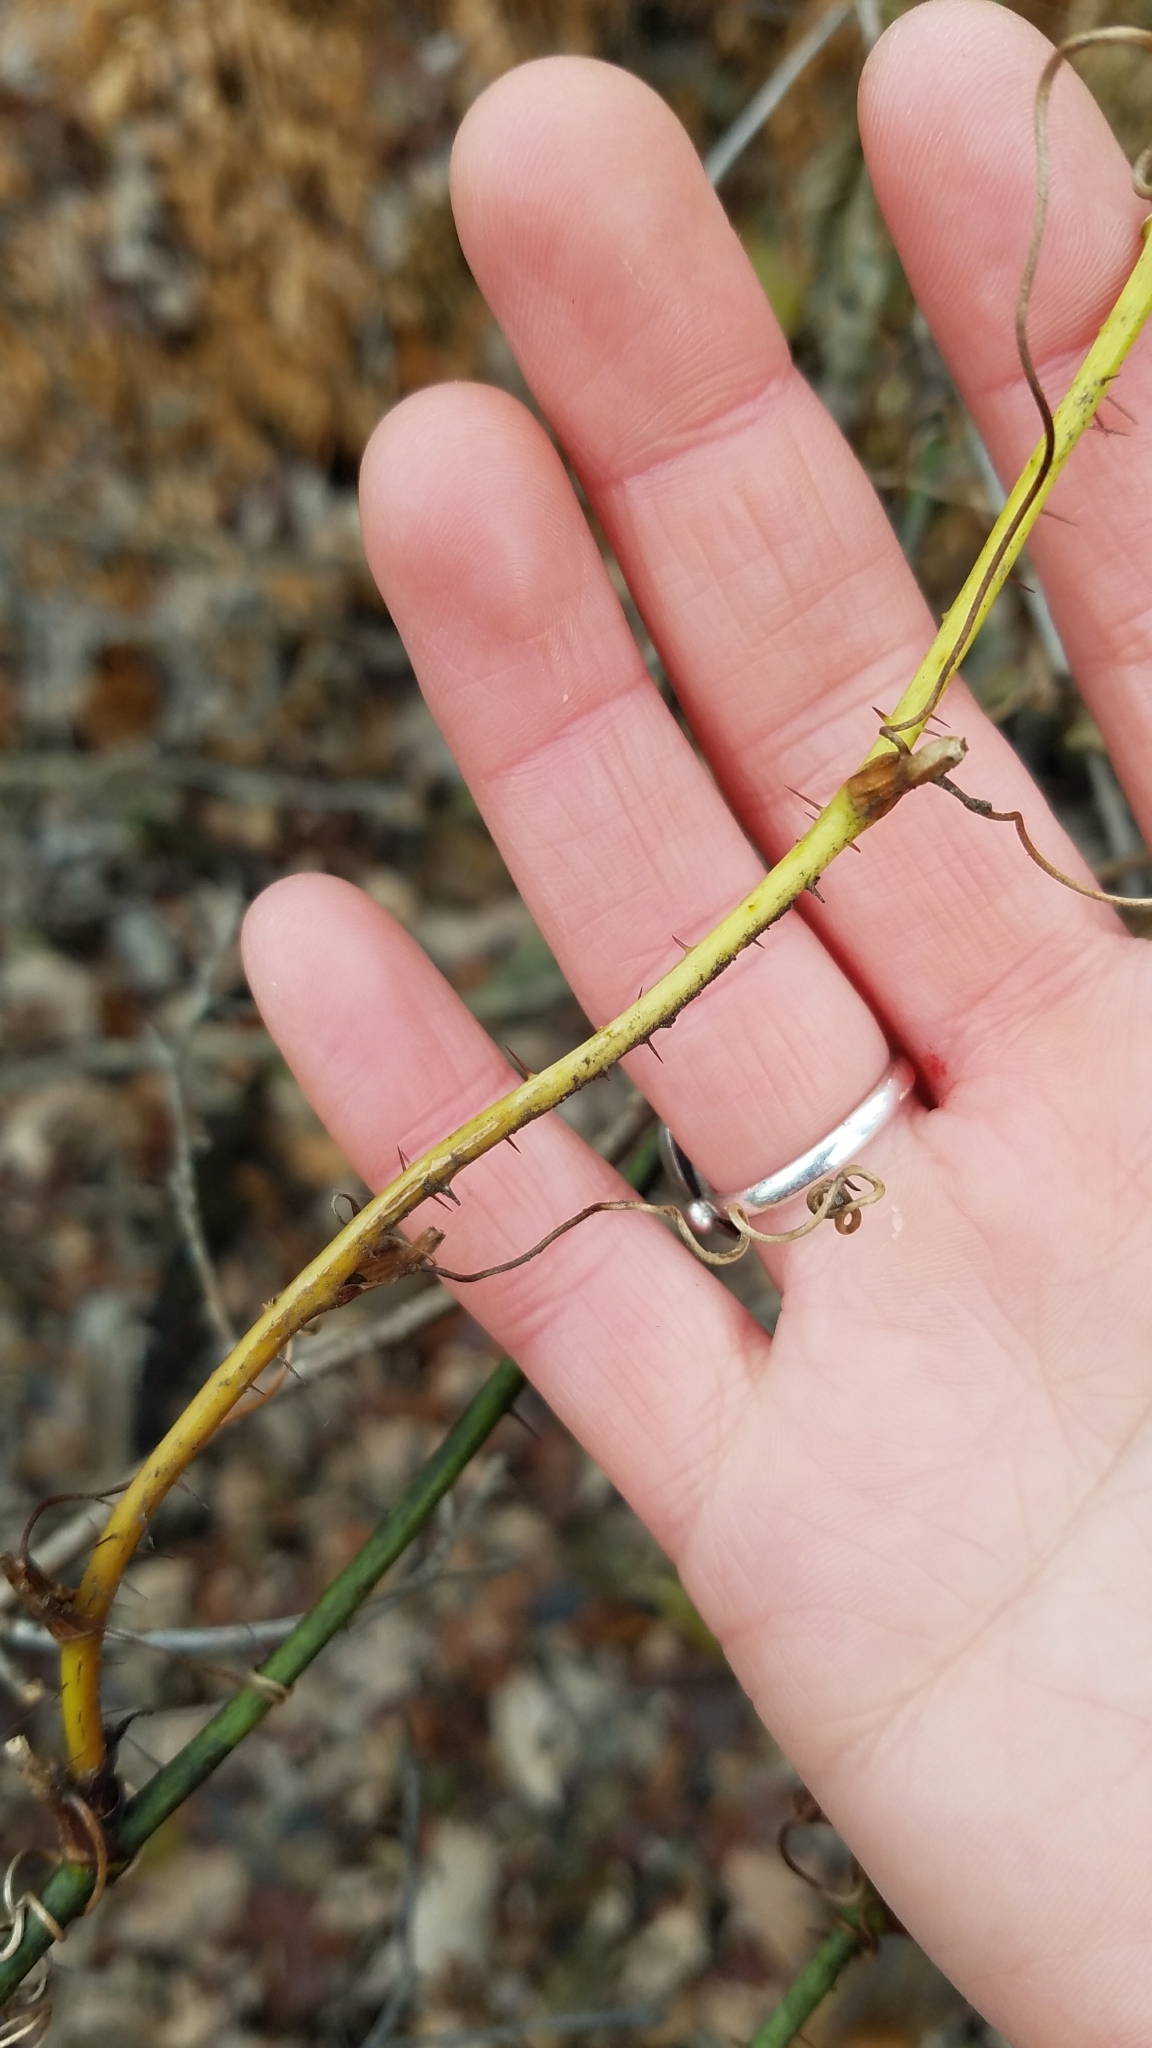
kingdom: Plantae
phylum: Tracheophyta
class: Liliopsida
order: Liliales
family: Smilacaceae
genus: Smilax
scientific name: Smilax tamnoides
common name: Hellfetter
